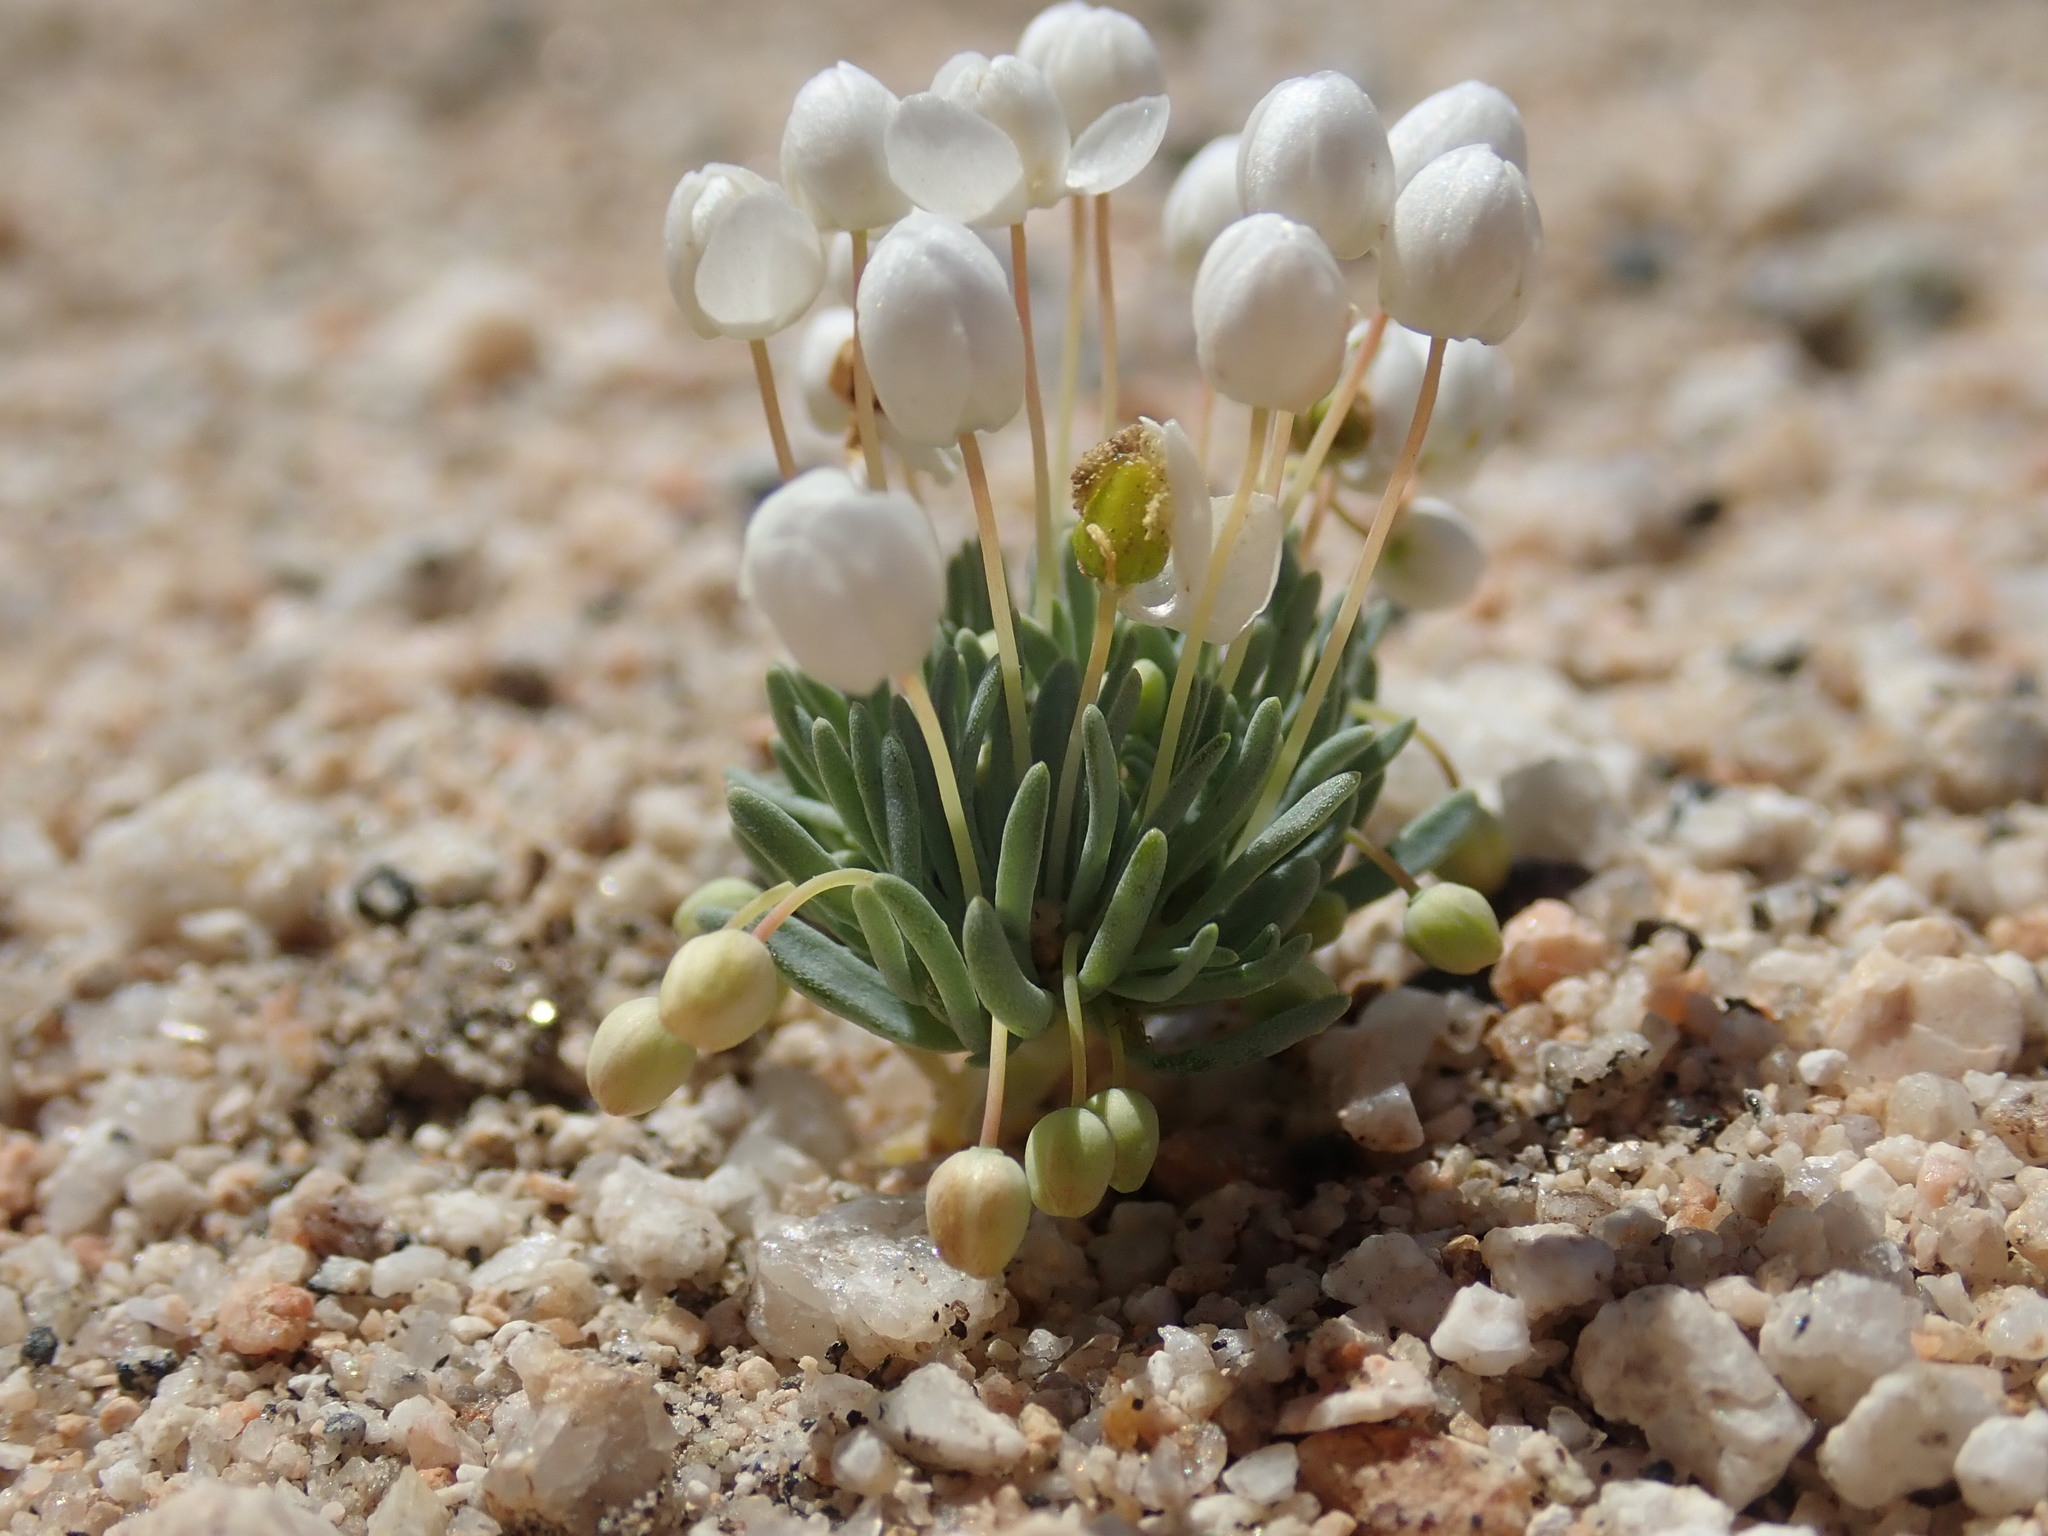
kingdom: Plantae
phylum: Tracheophyta
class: Magnoliopsida
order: Ranunculales
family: Papaveraceae
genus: Canbya
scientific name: Canbya candida
